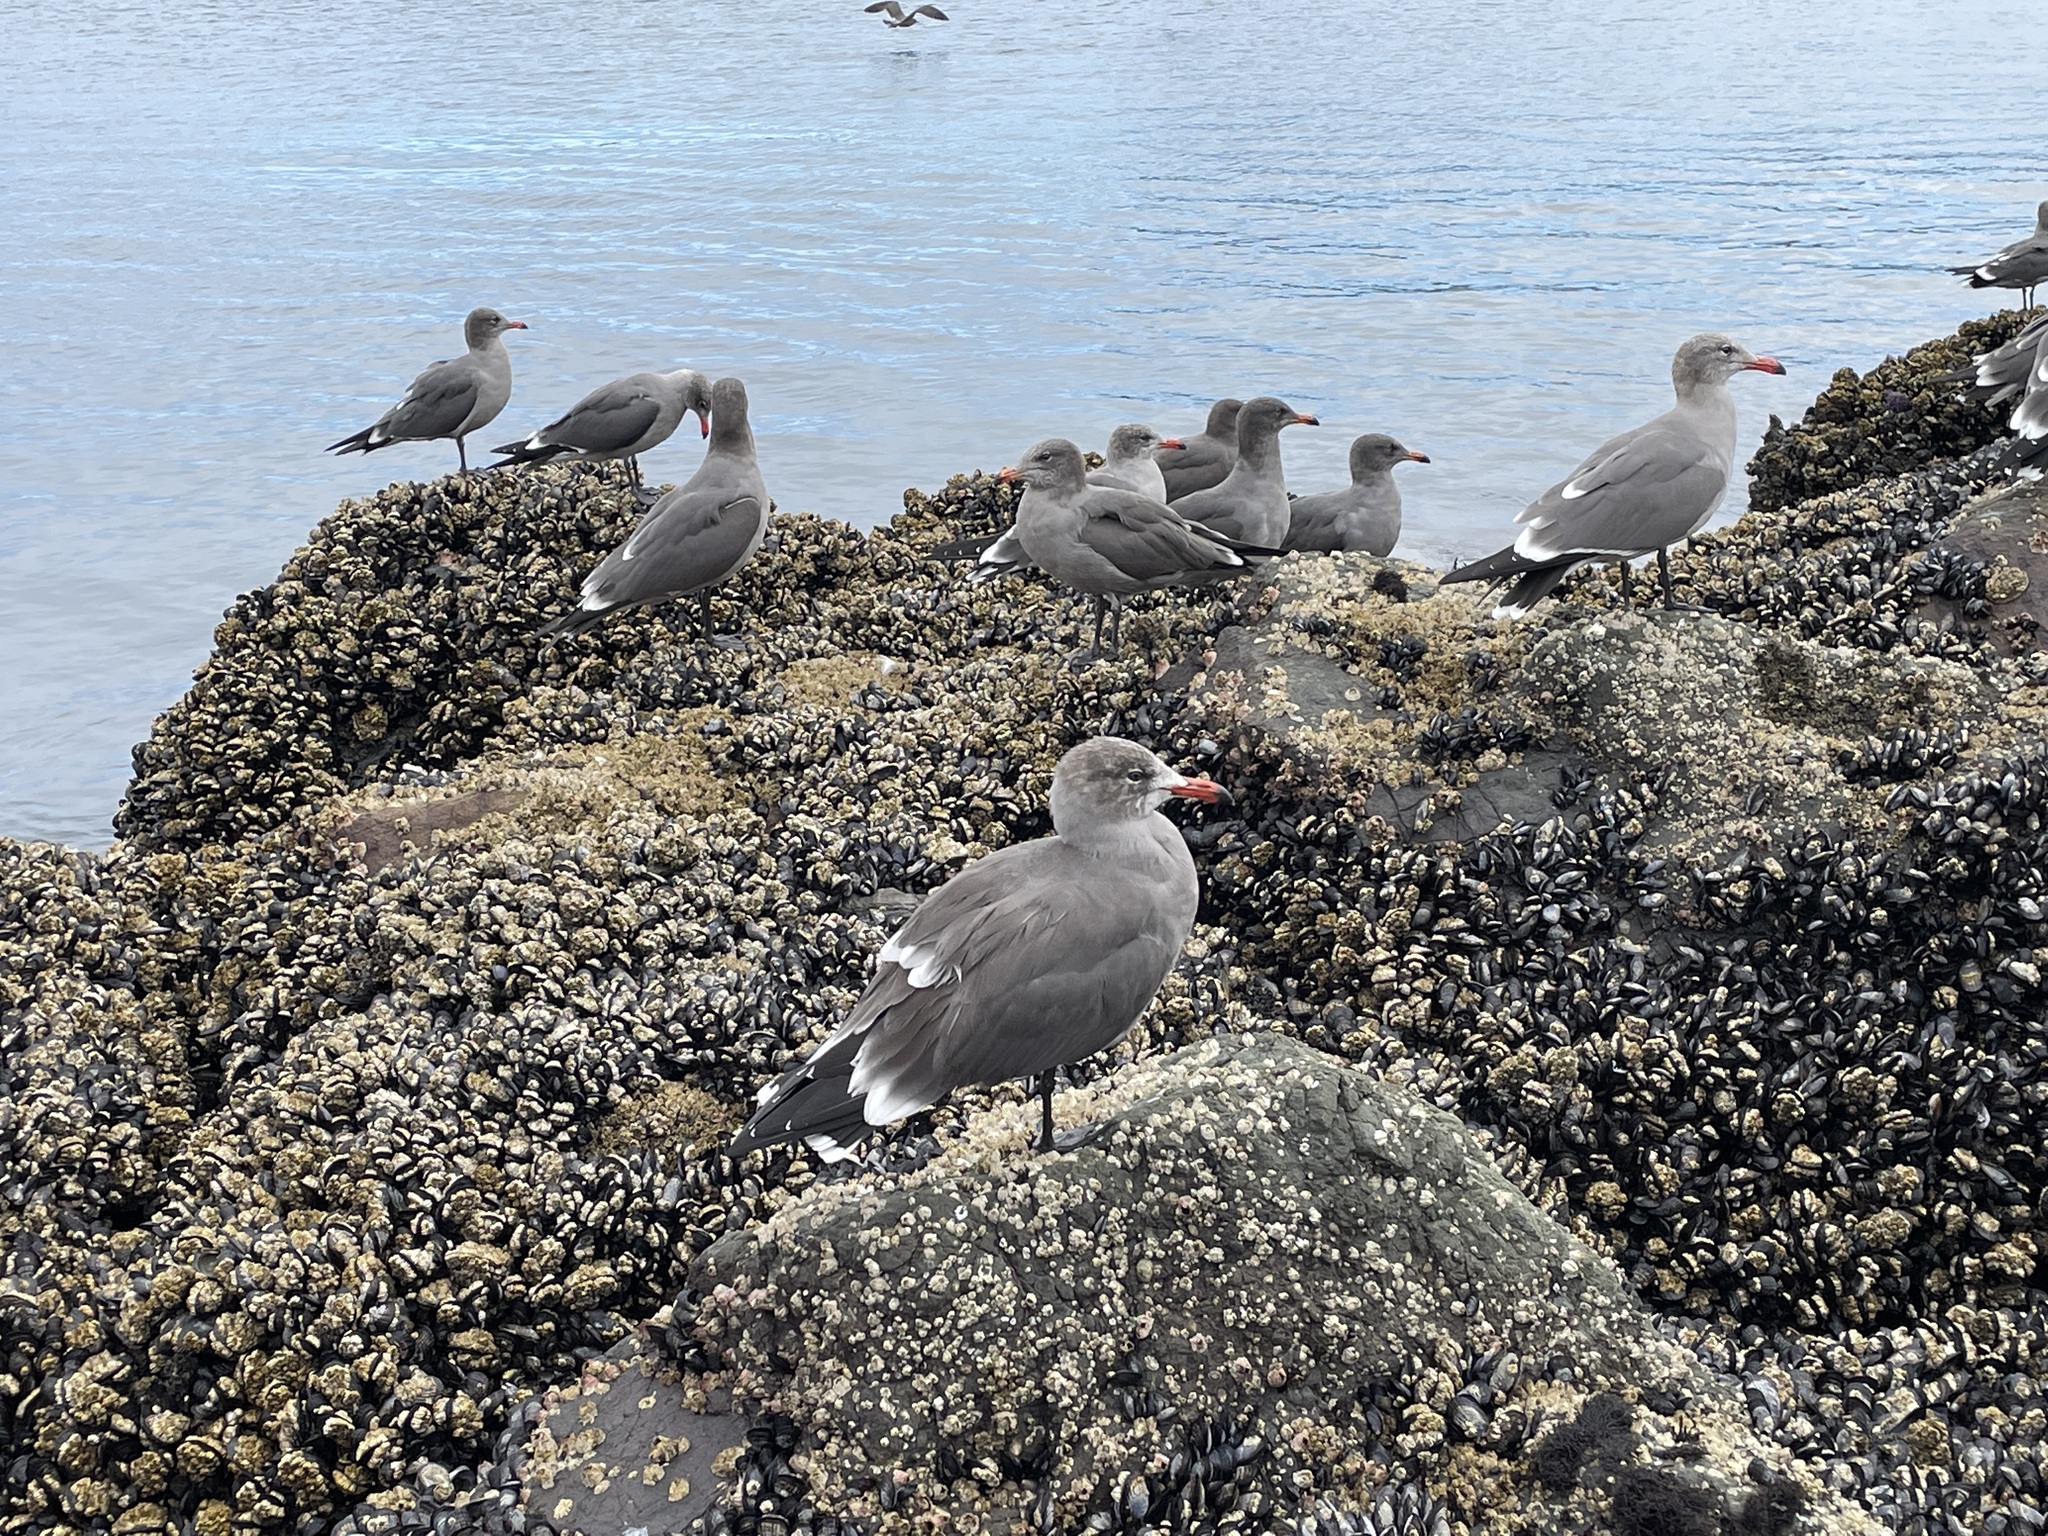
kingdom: Animalia
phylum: Chordata
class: Aves
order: Charadriiformes
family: Laridae
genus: Larus
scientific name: Larus heermanni
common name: Heermann's gull
